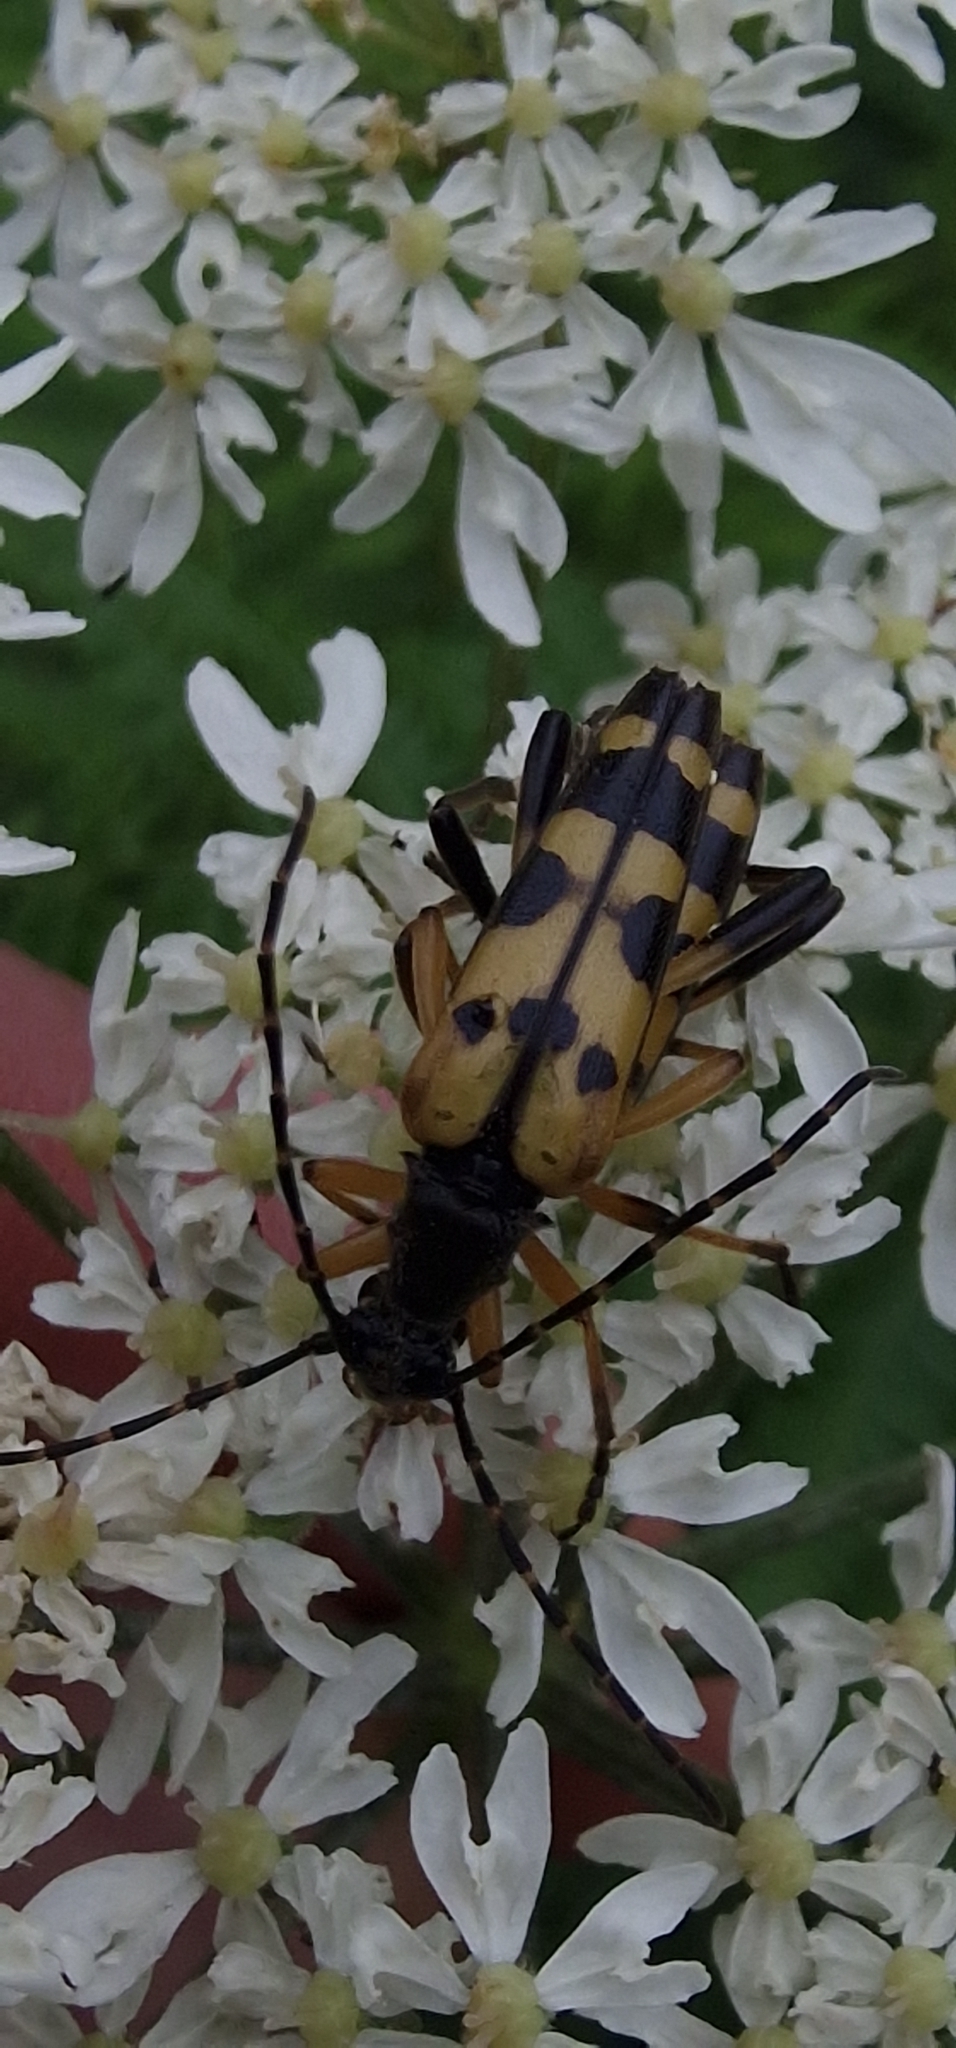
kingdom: Animalia
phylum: Arthropoda
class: Insecta
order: Coleoptera
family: Cerambycidae
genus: Rutpela
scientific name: Rutpela maculata
